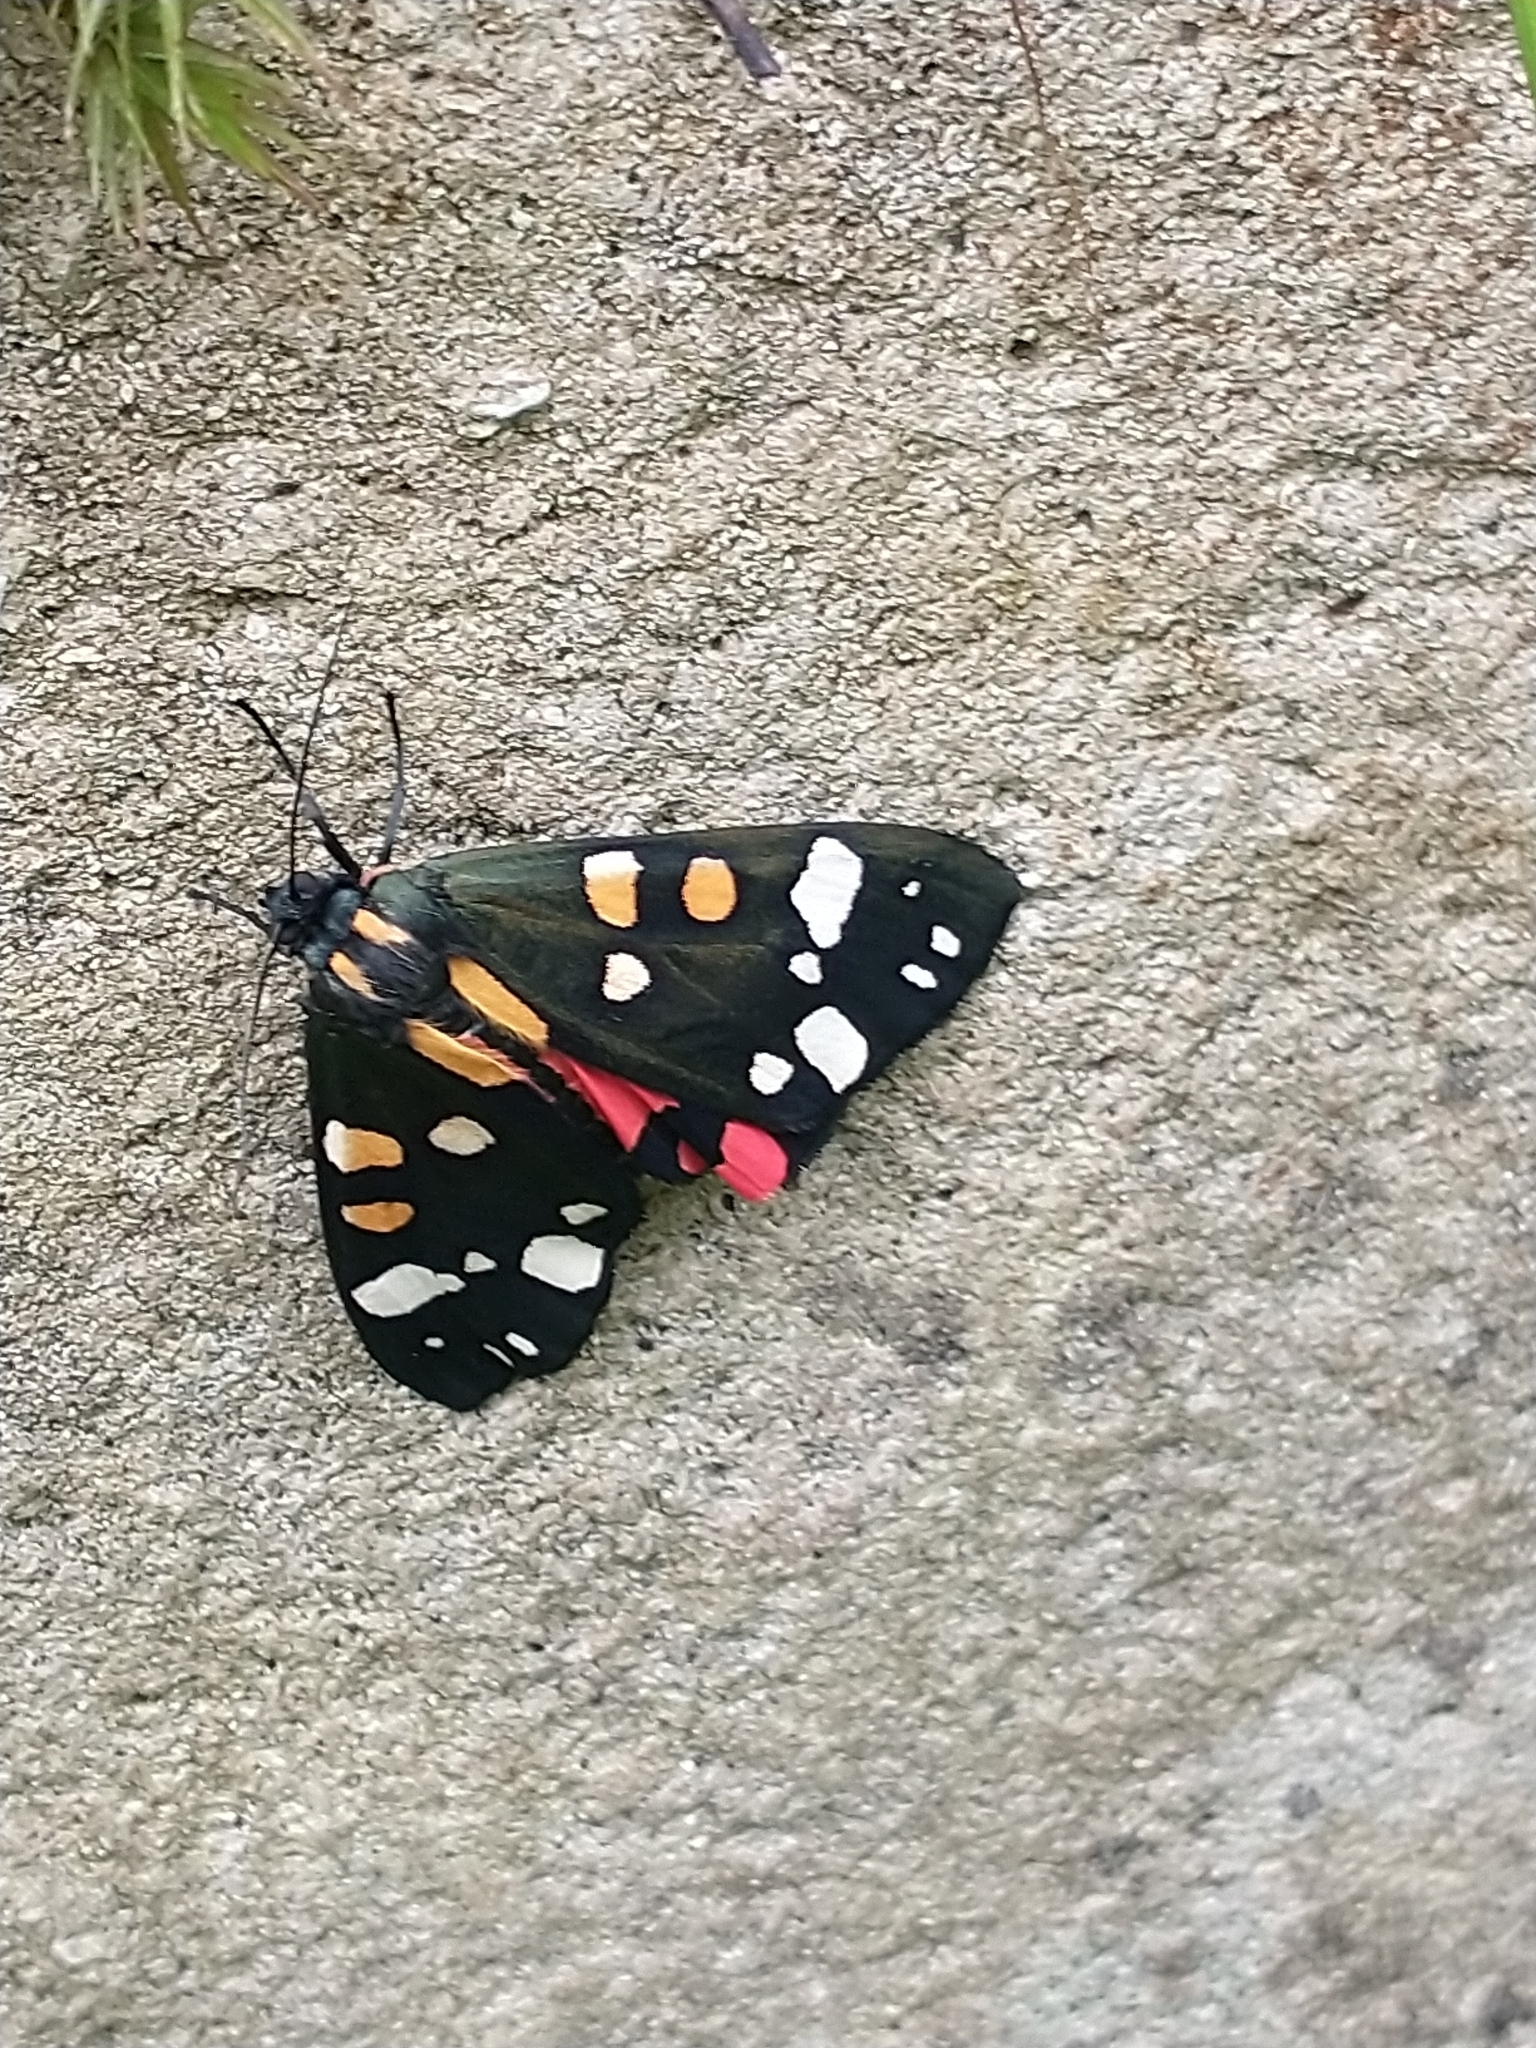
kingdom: Animalia
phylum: Arthropoda
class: Insecta
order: Lepidoptera
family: Erebidae
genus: Callimorpha
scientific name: Callimorpha dominula
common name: Scarlet tiger
